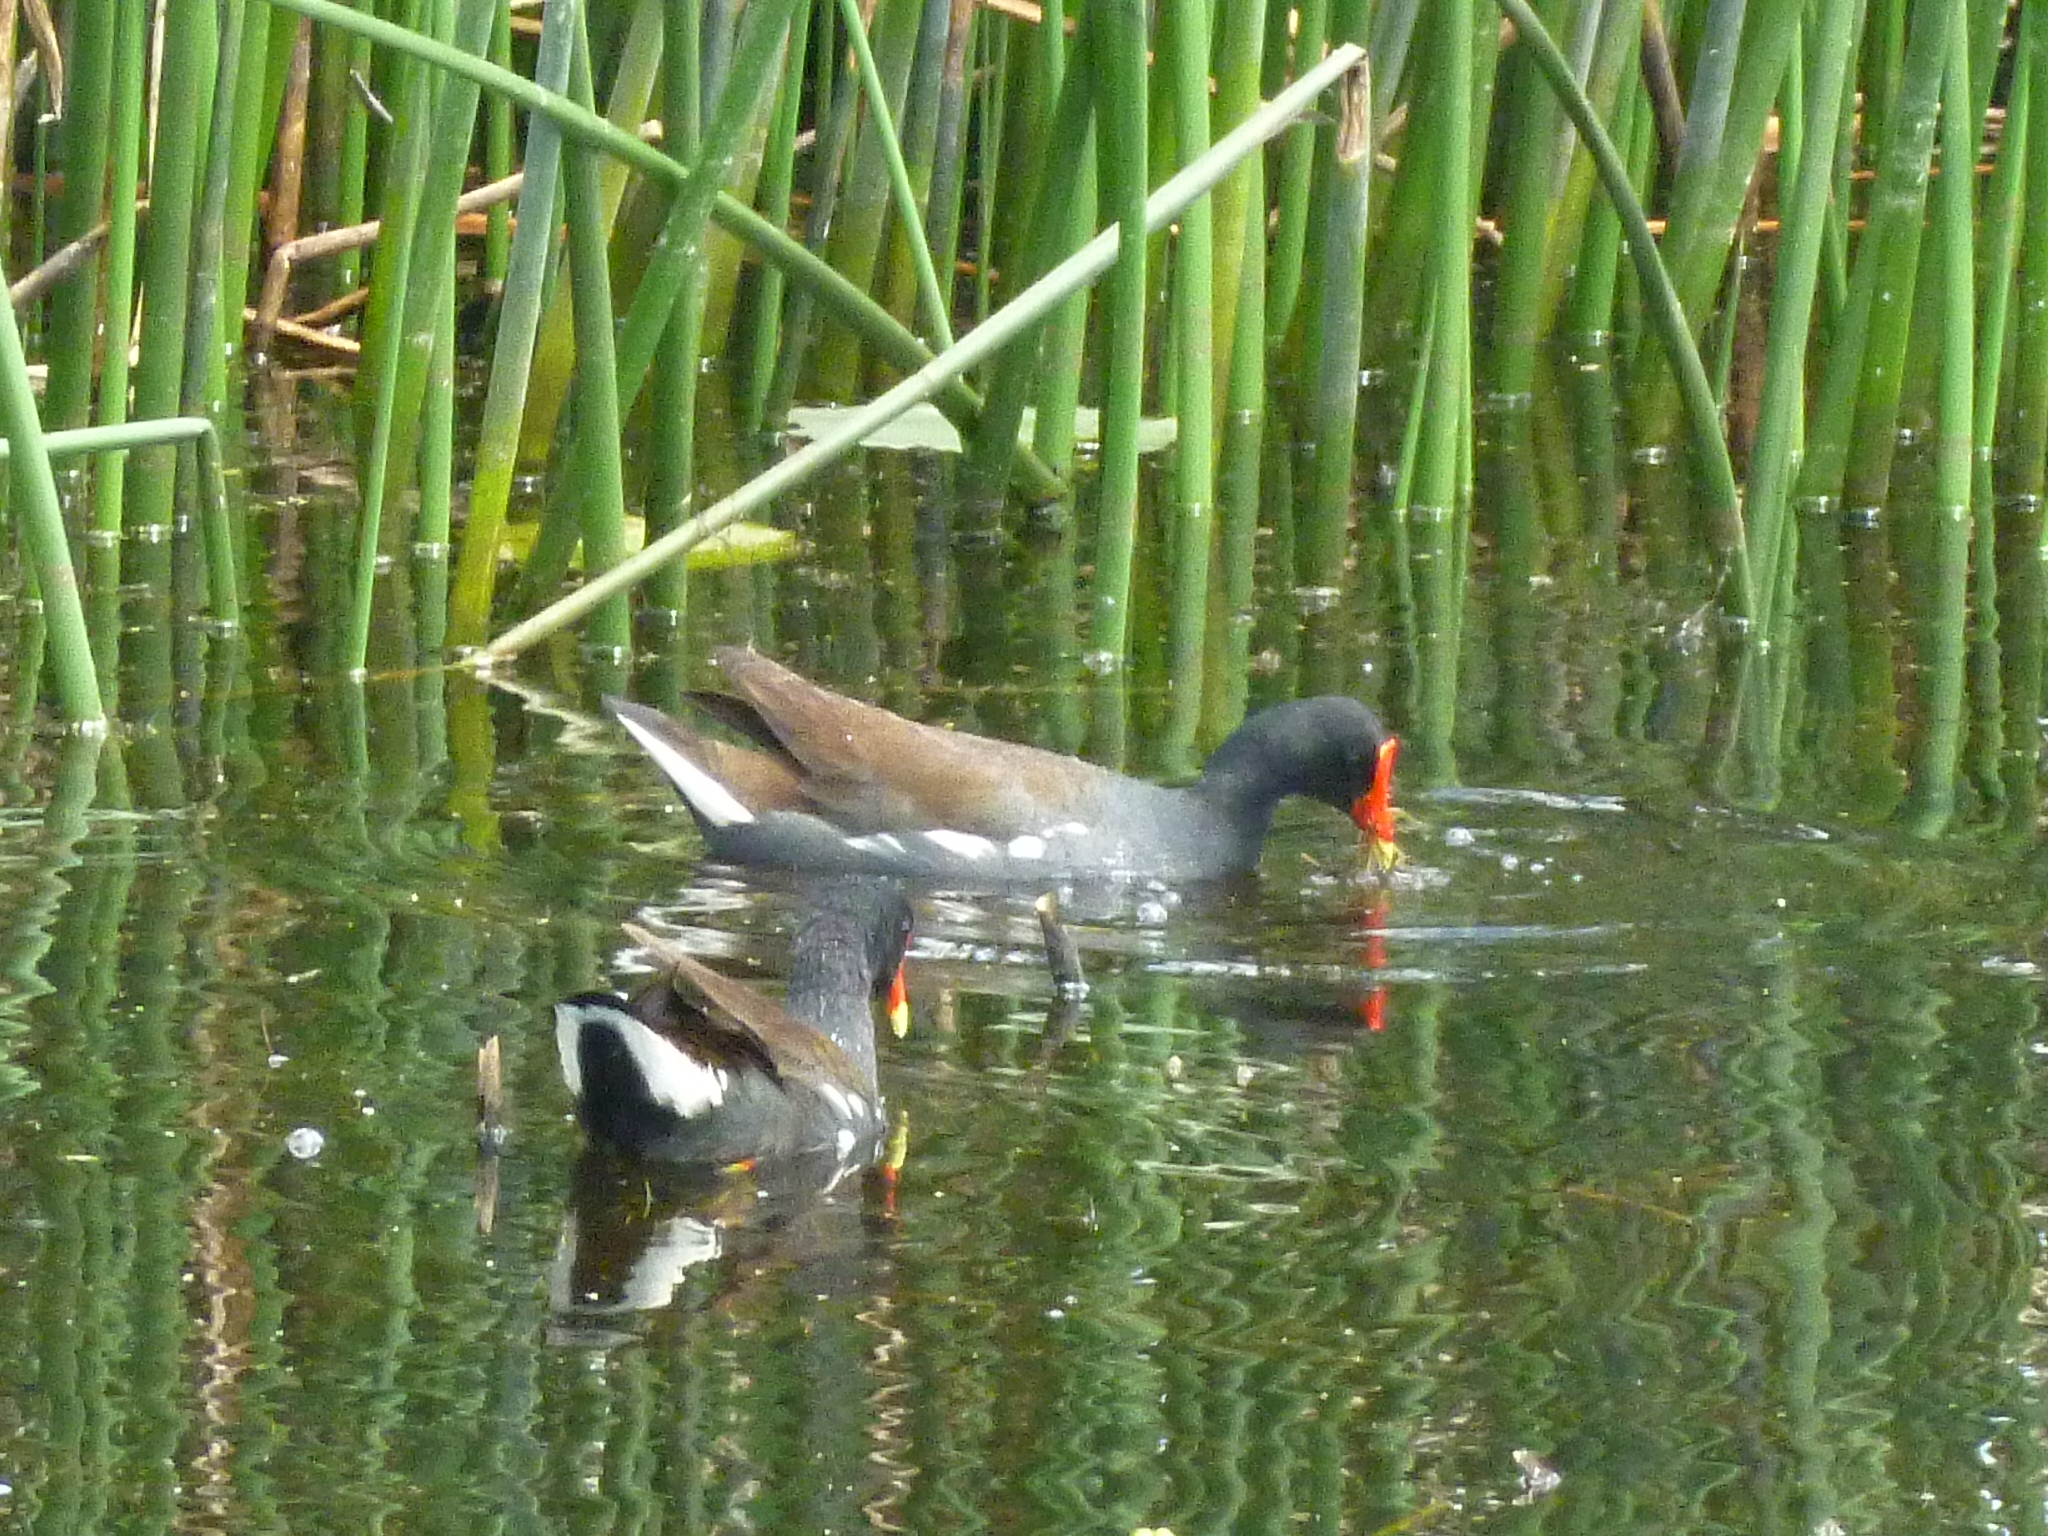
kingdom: Animalia
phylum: Chordata
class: Aves
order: Gruiformes
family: Rallidae
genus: Gallinula
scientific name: Gallinula chloropus
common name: Common moorhen
